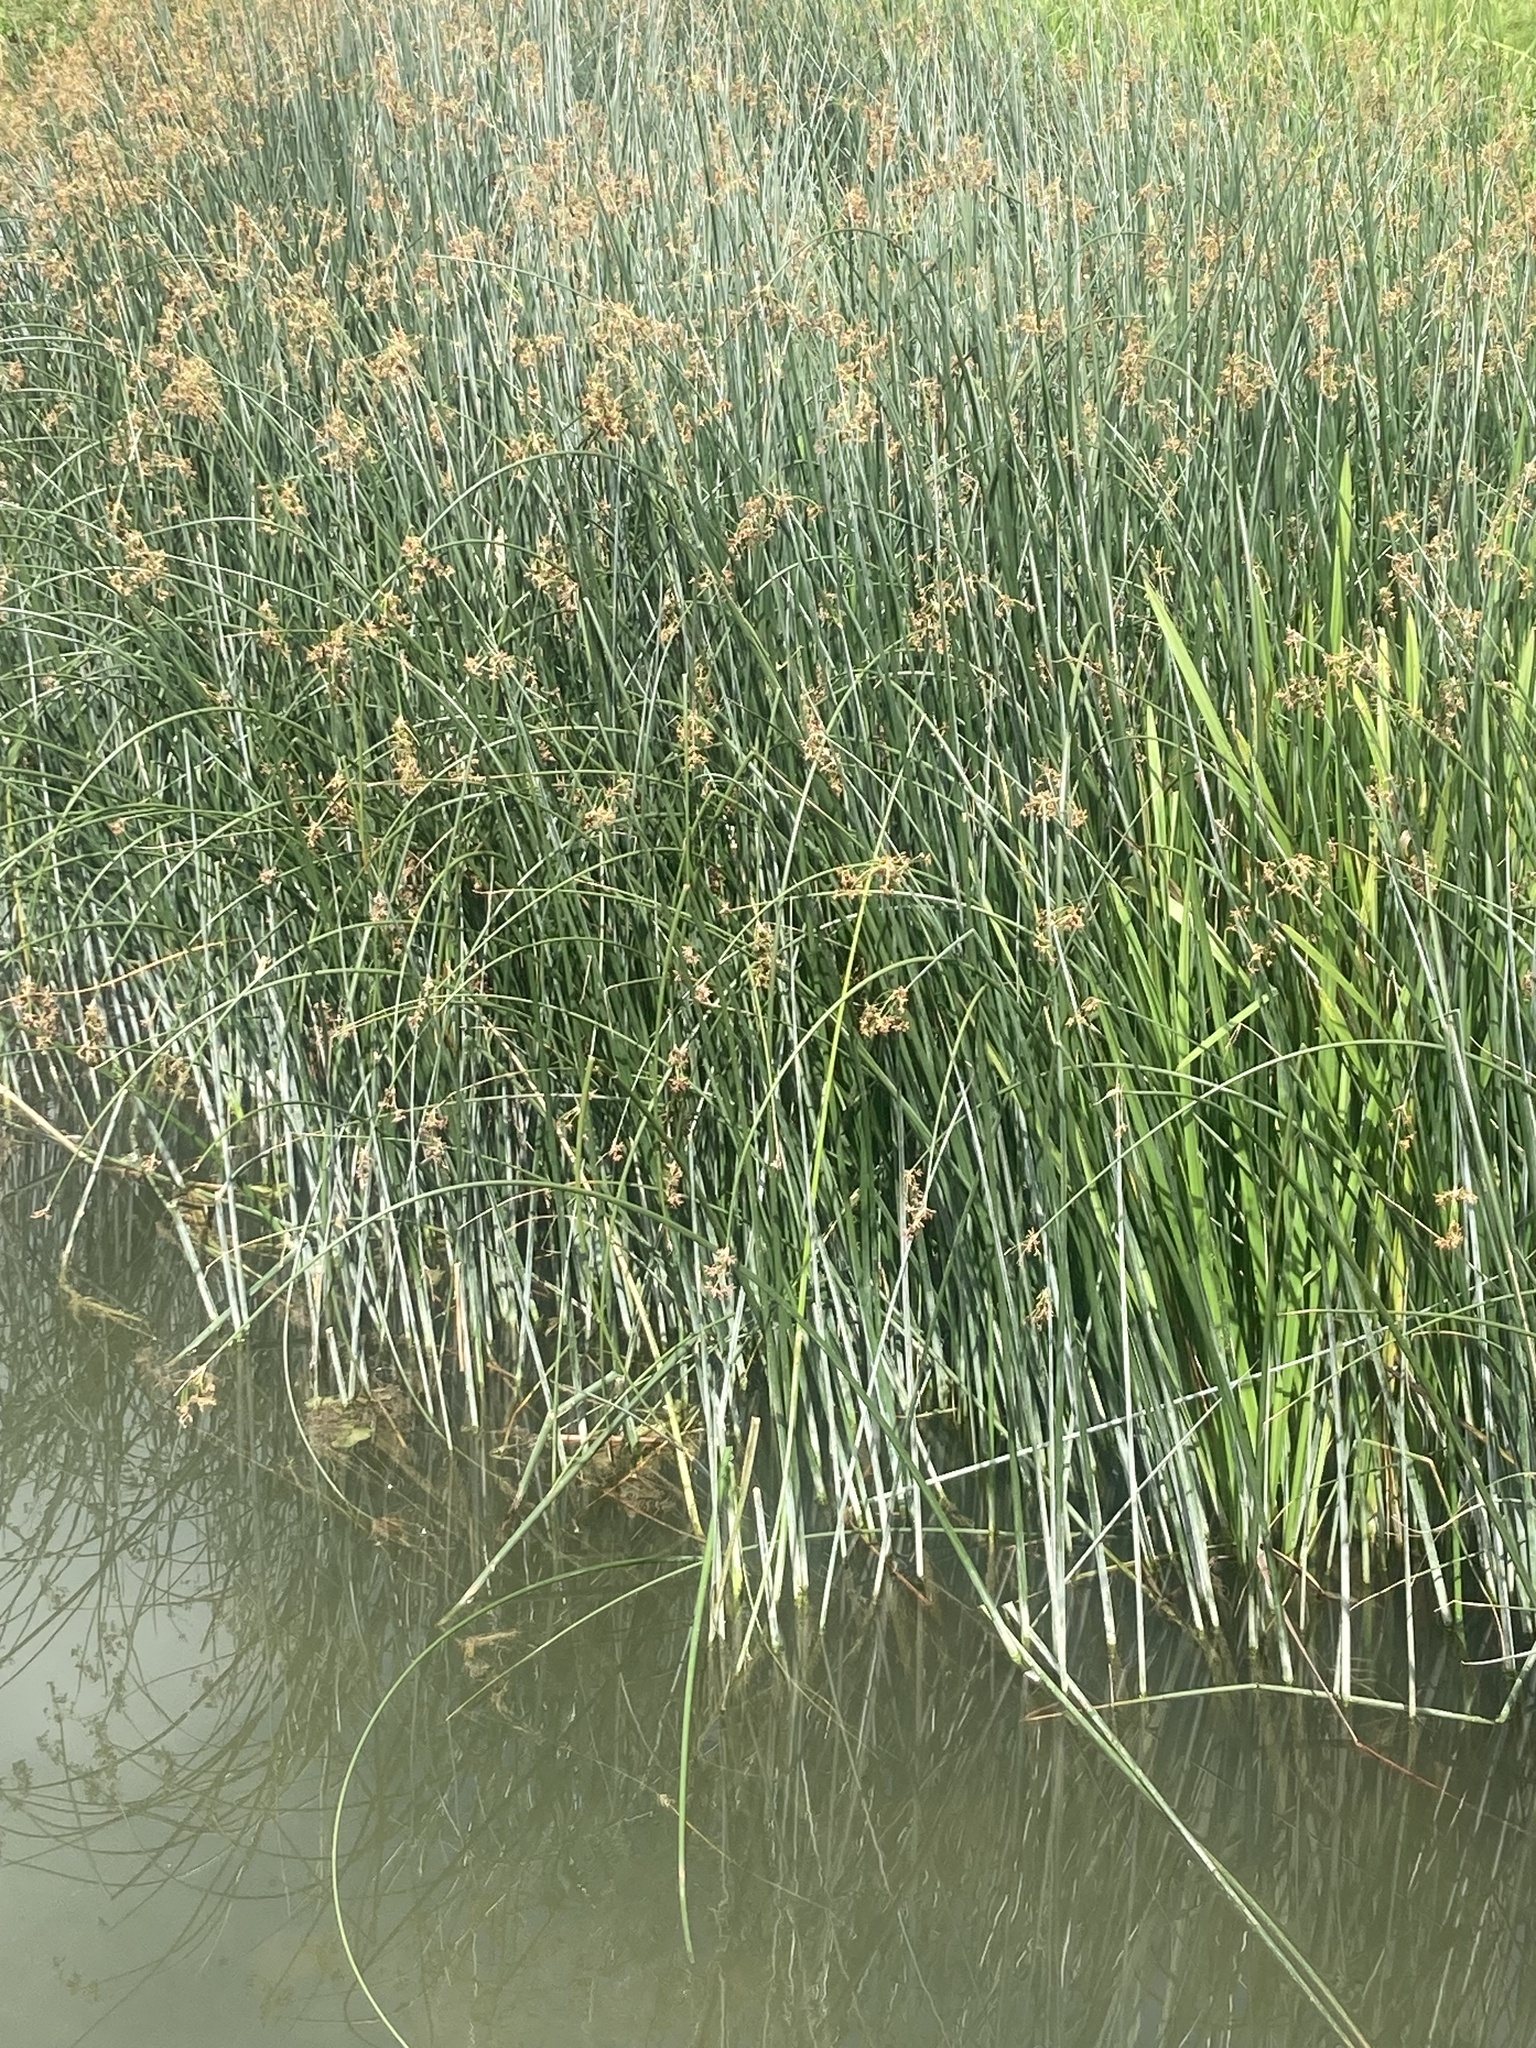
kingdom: Plantae
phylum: Tracheophyta
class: Liliopsida
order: Poales
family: Cyperaceae
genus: Schoenoplectus
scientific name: Schoenoplectus lacustris
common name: Common club-rush
